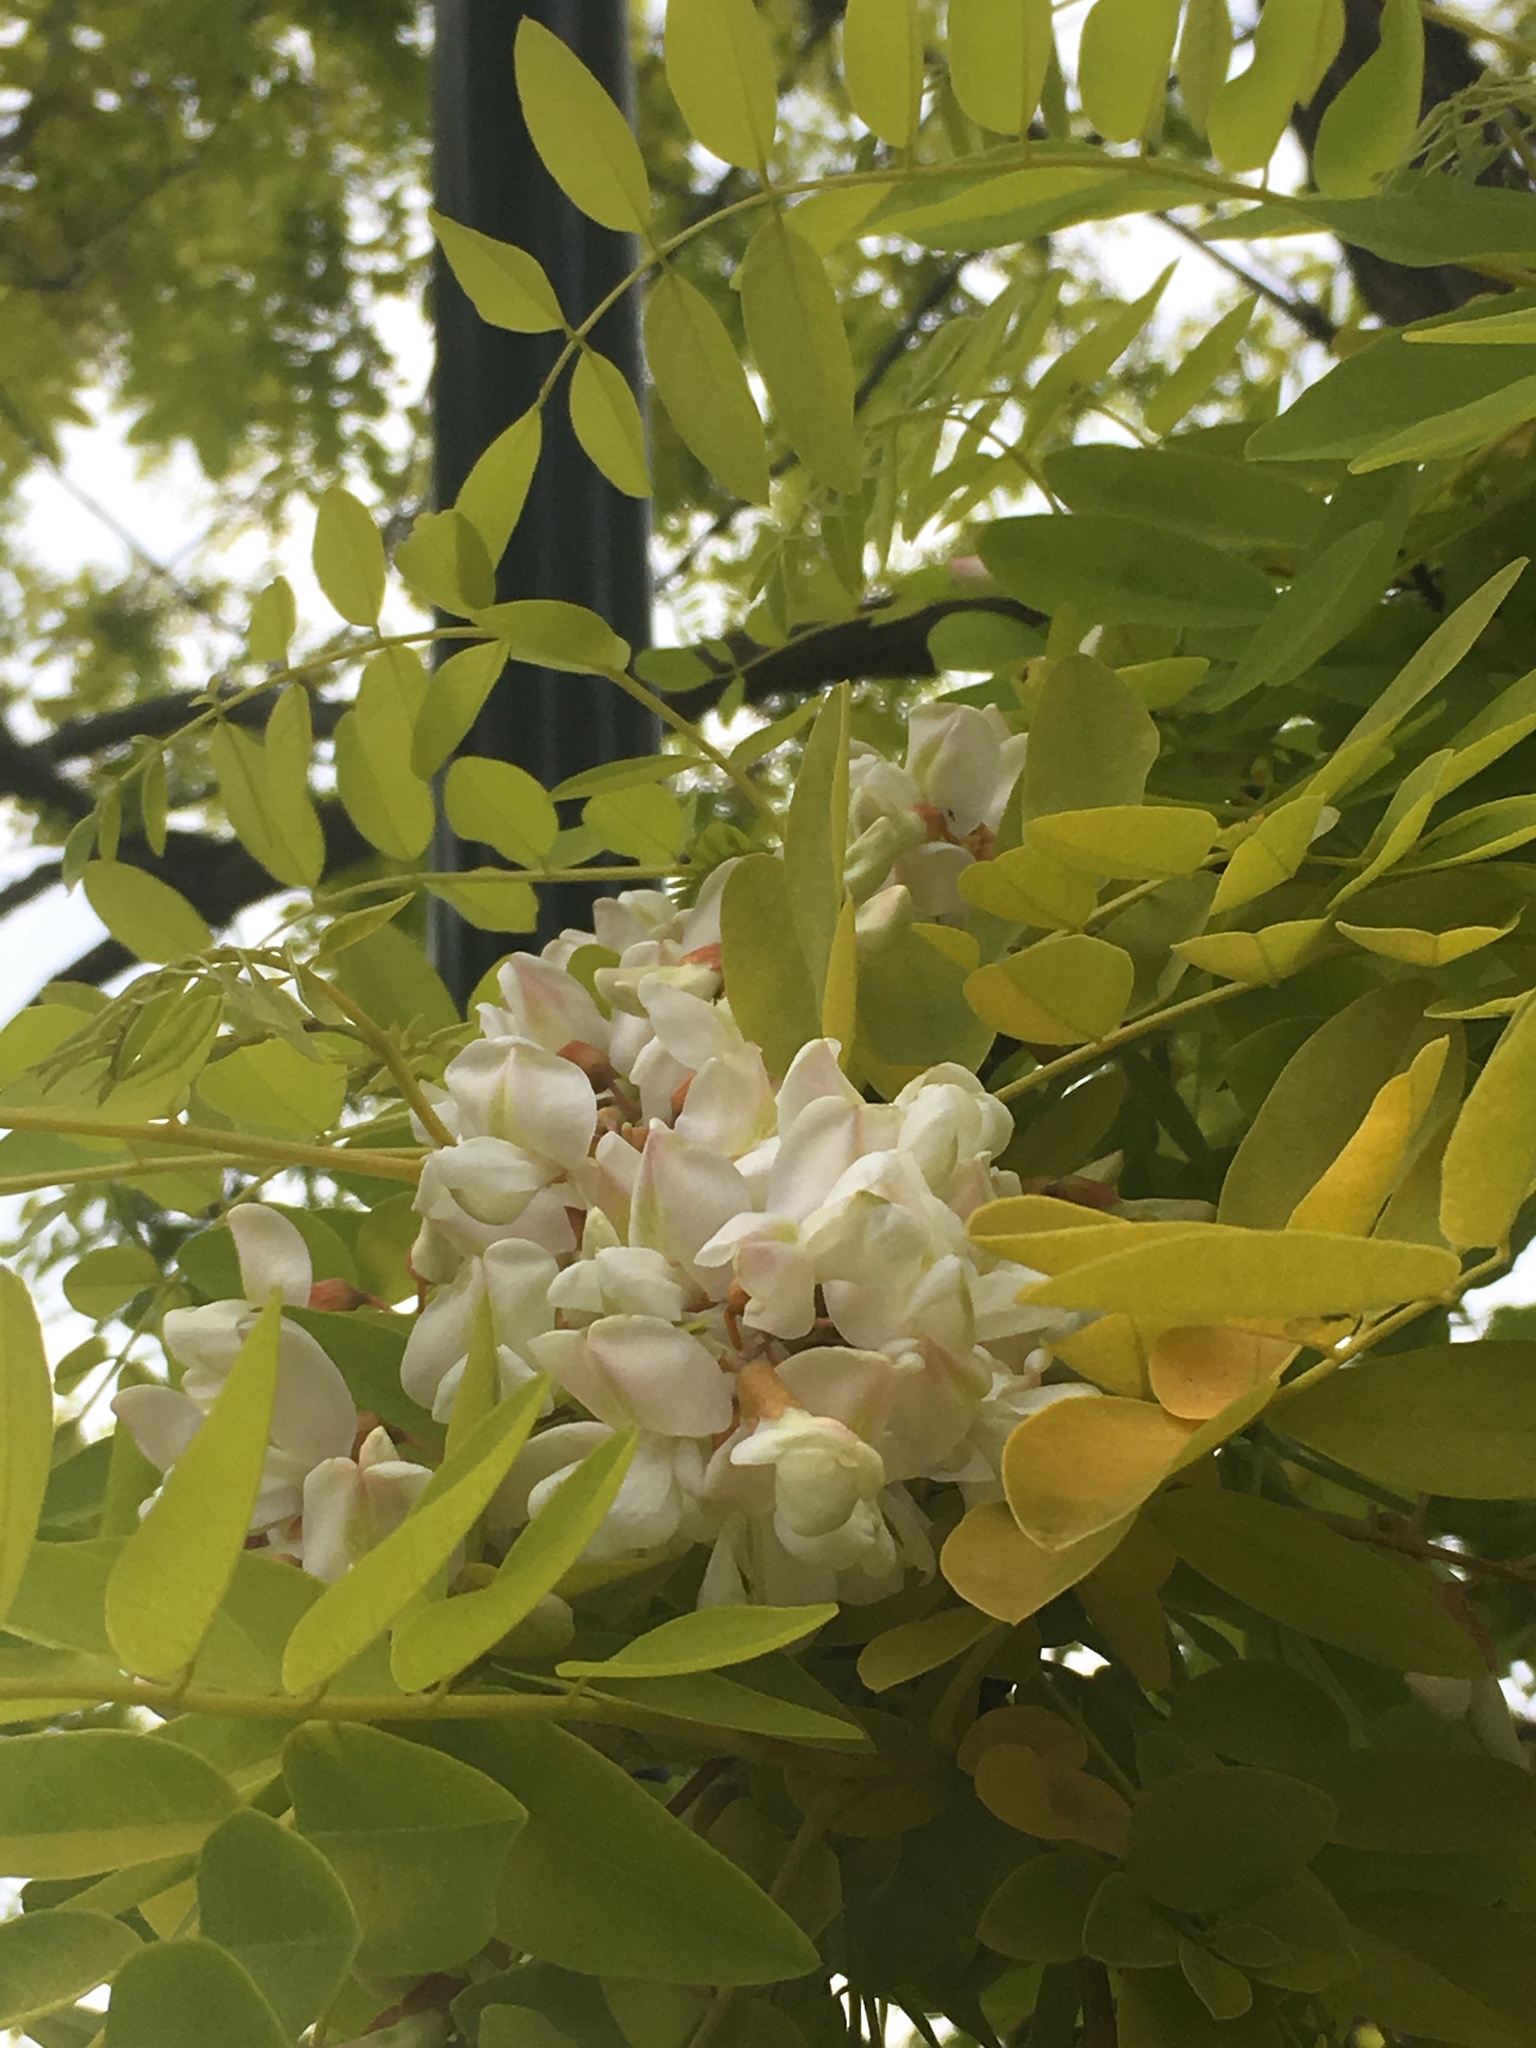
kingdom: Plantae
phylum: Tracheophyta
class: Magnoliopsida
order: Fabales
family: Fabaceae
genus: Robinia
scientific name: Robinia pseudoacacia
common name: Black locust
